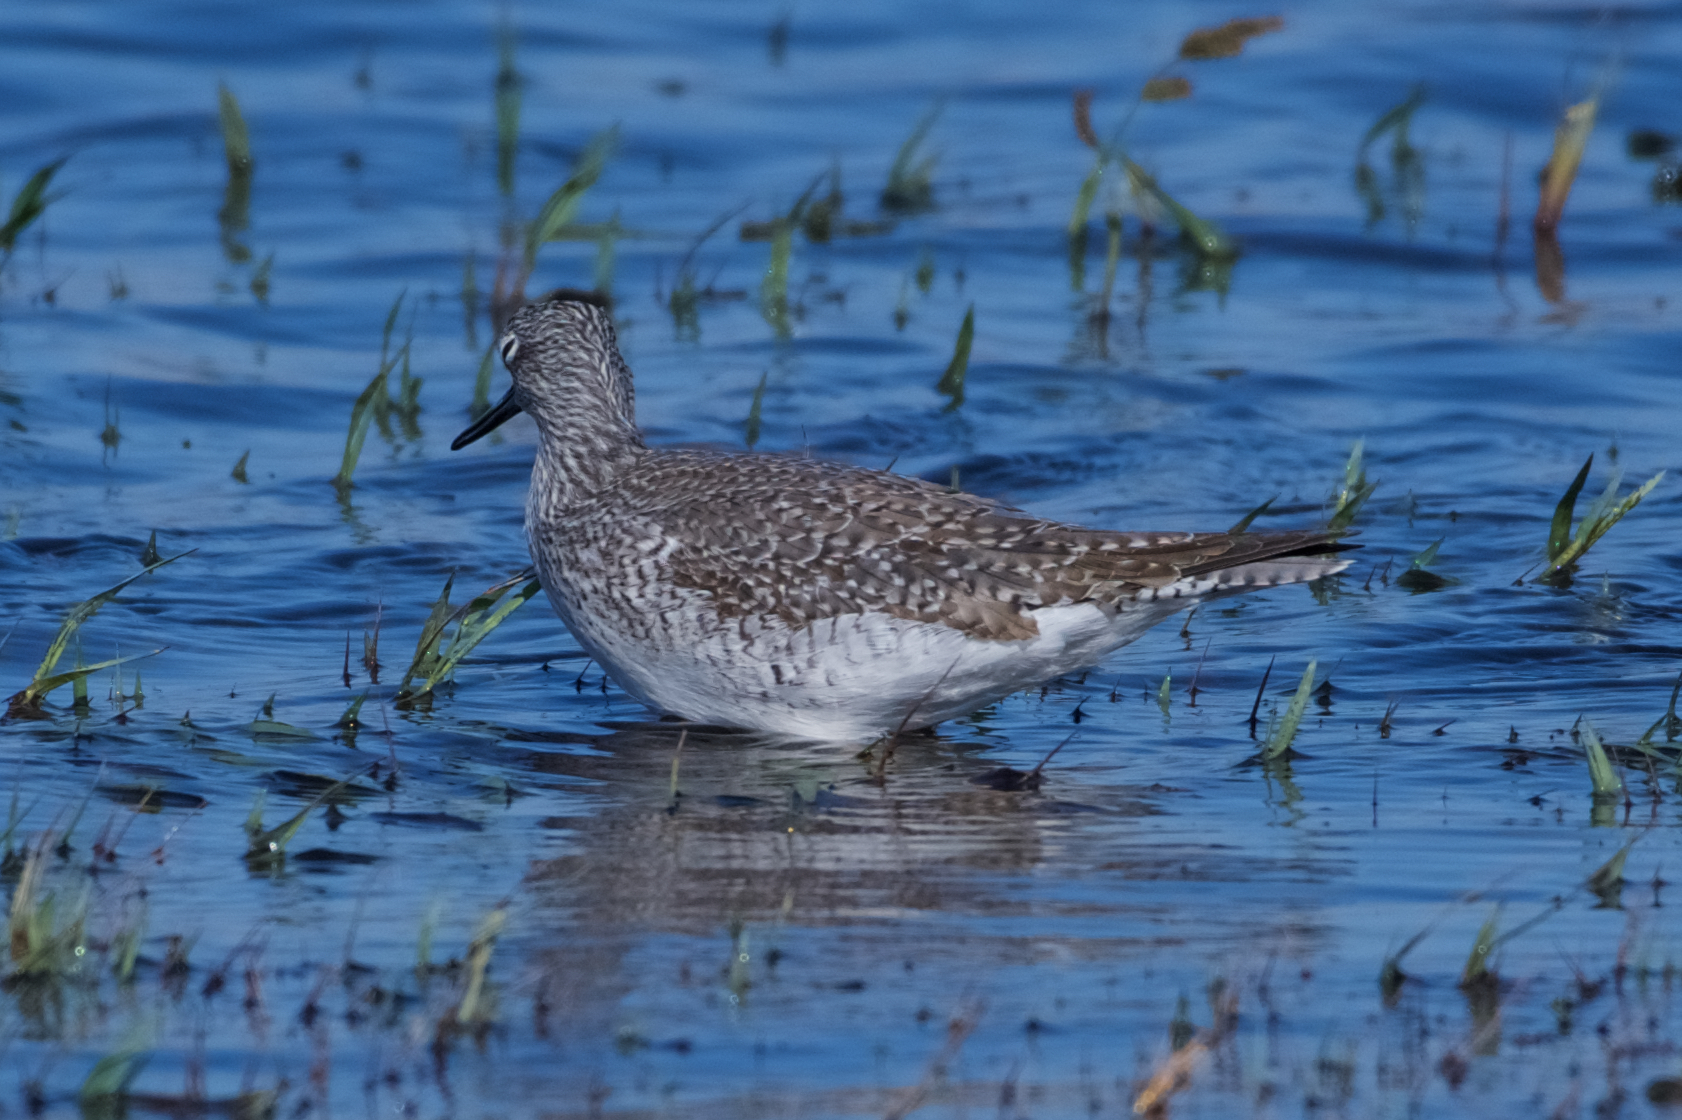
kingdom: Animalia
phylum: Chordata
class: Aves
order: Charadriiformes
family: Scolopacidae
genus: Tringa
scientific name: Tringa melanoleuca
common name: Greater yellowlegs
